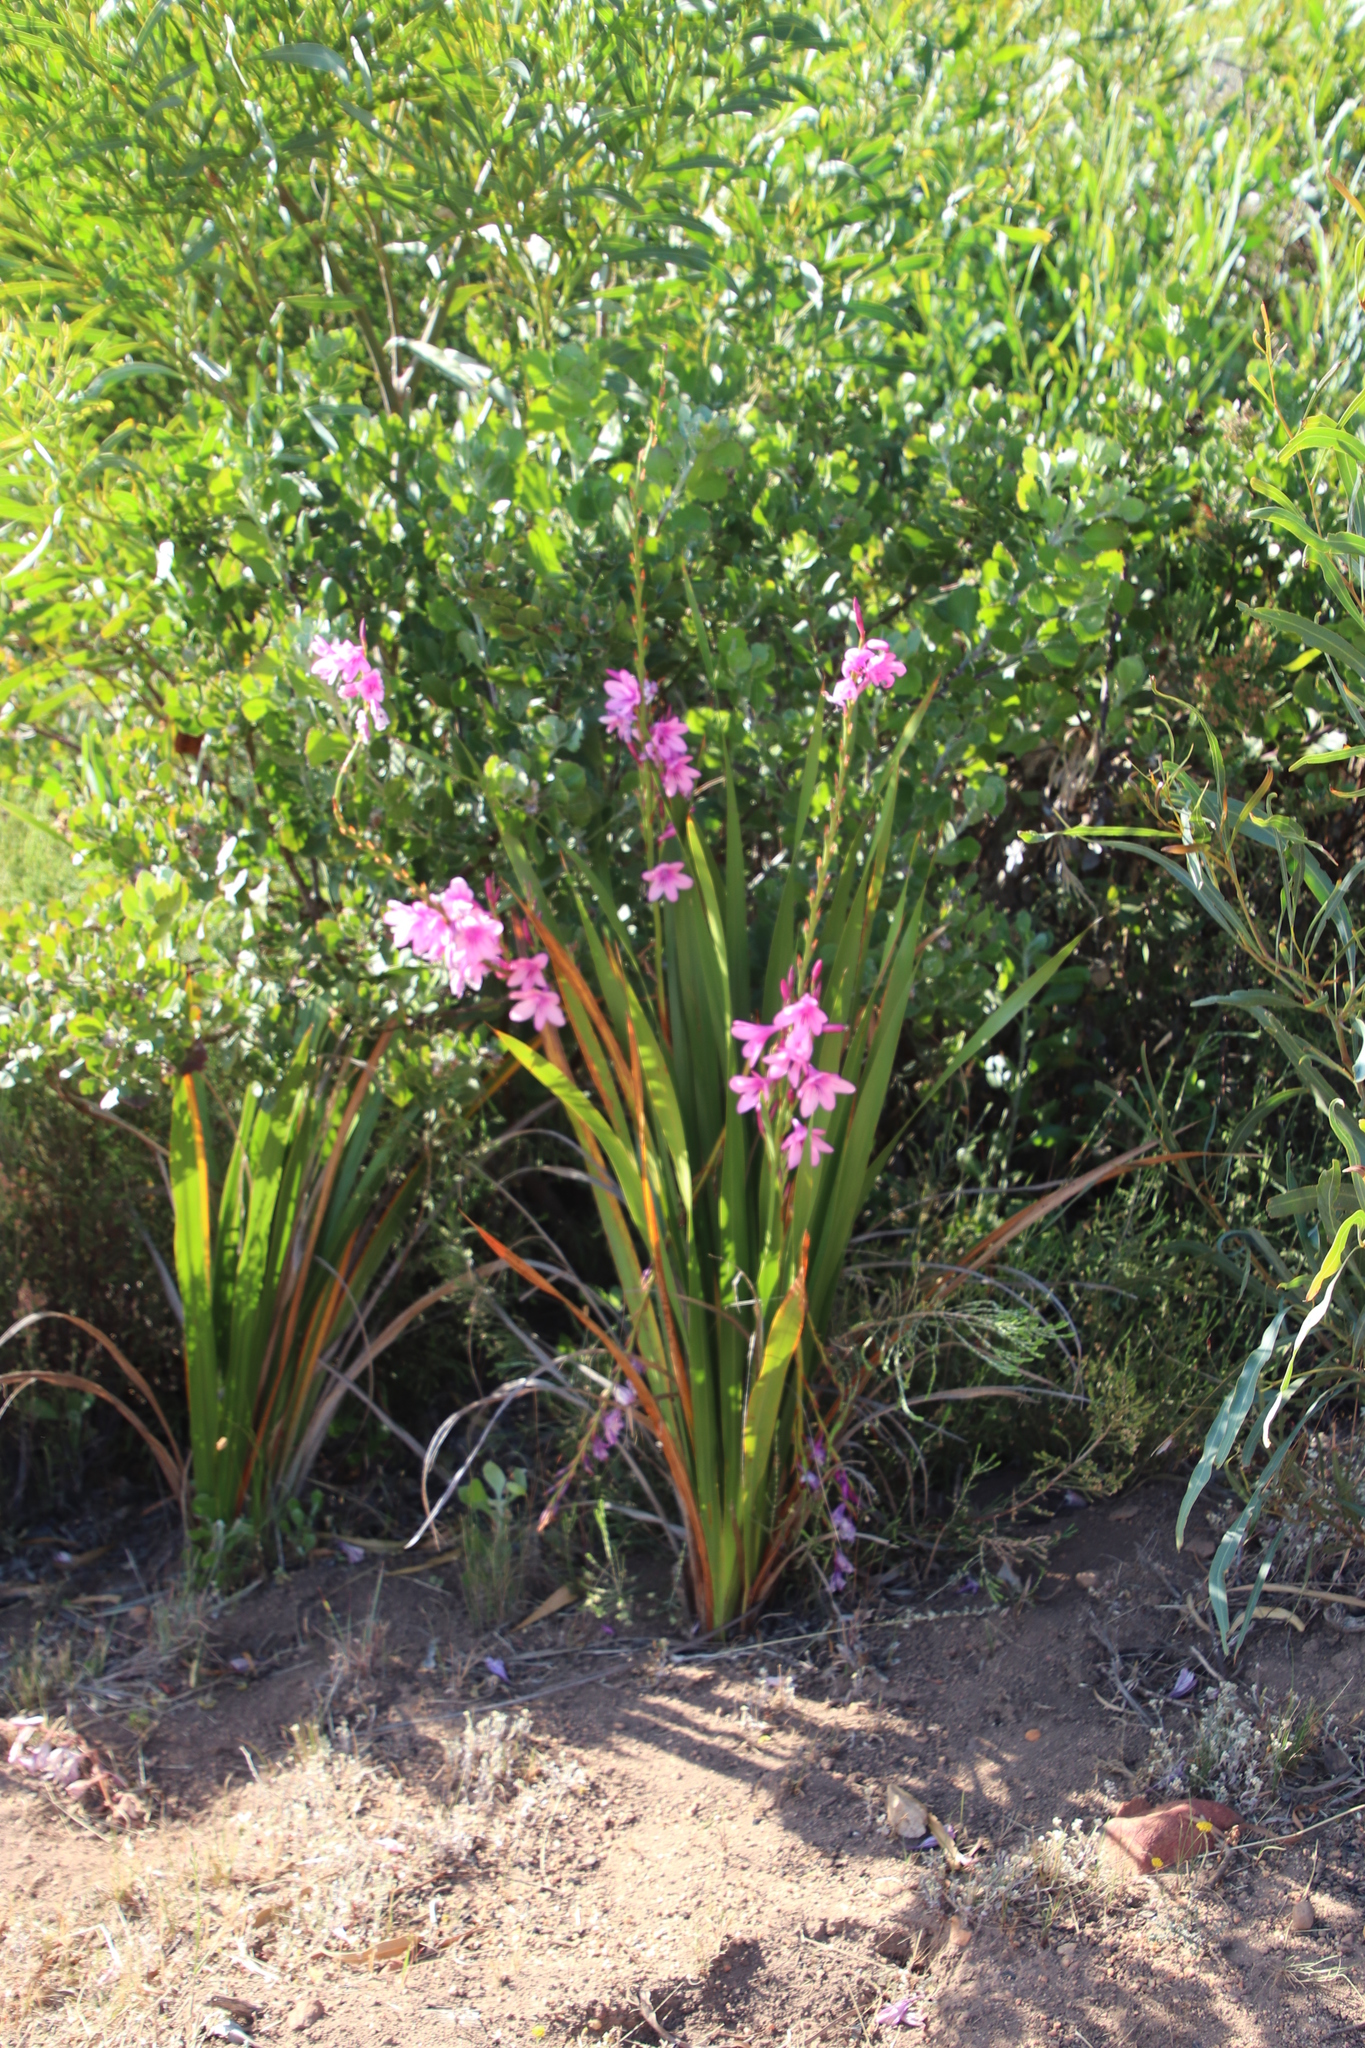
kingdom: Plantae
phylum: Tracheophyta
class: Liliopsida
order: Asparagales
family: Iridaceae
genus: Watsonia
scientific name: Watsonia borbonica
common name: Bugle-lily
